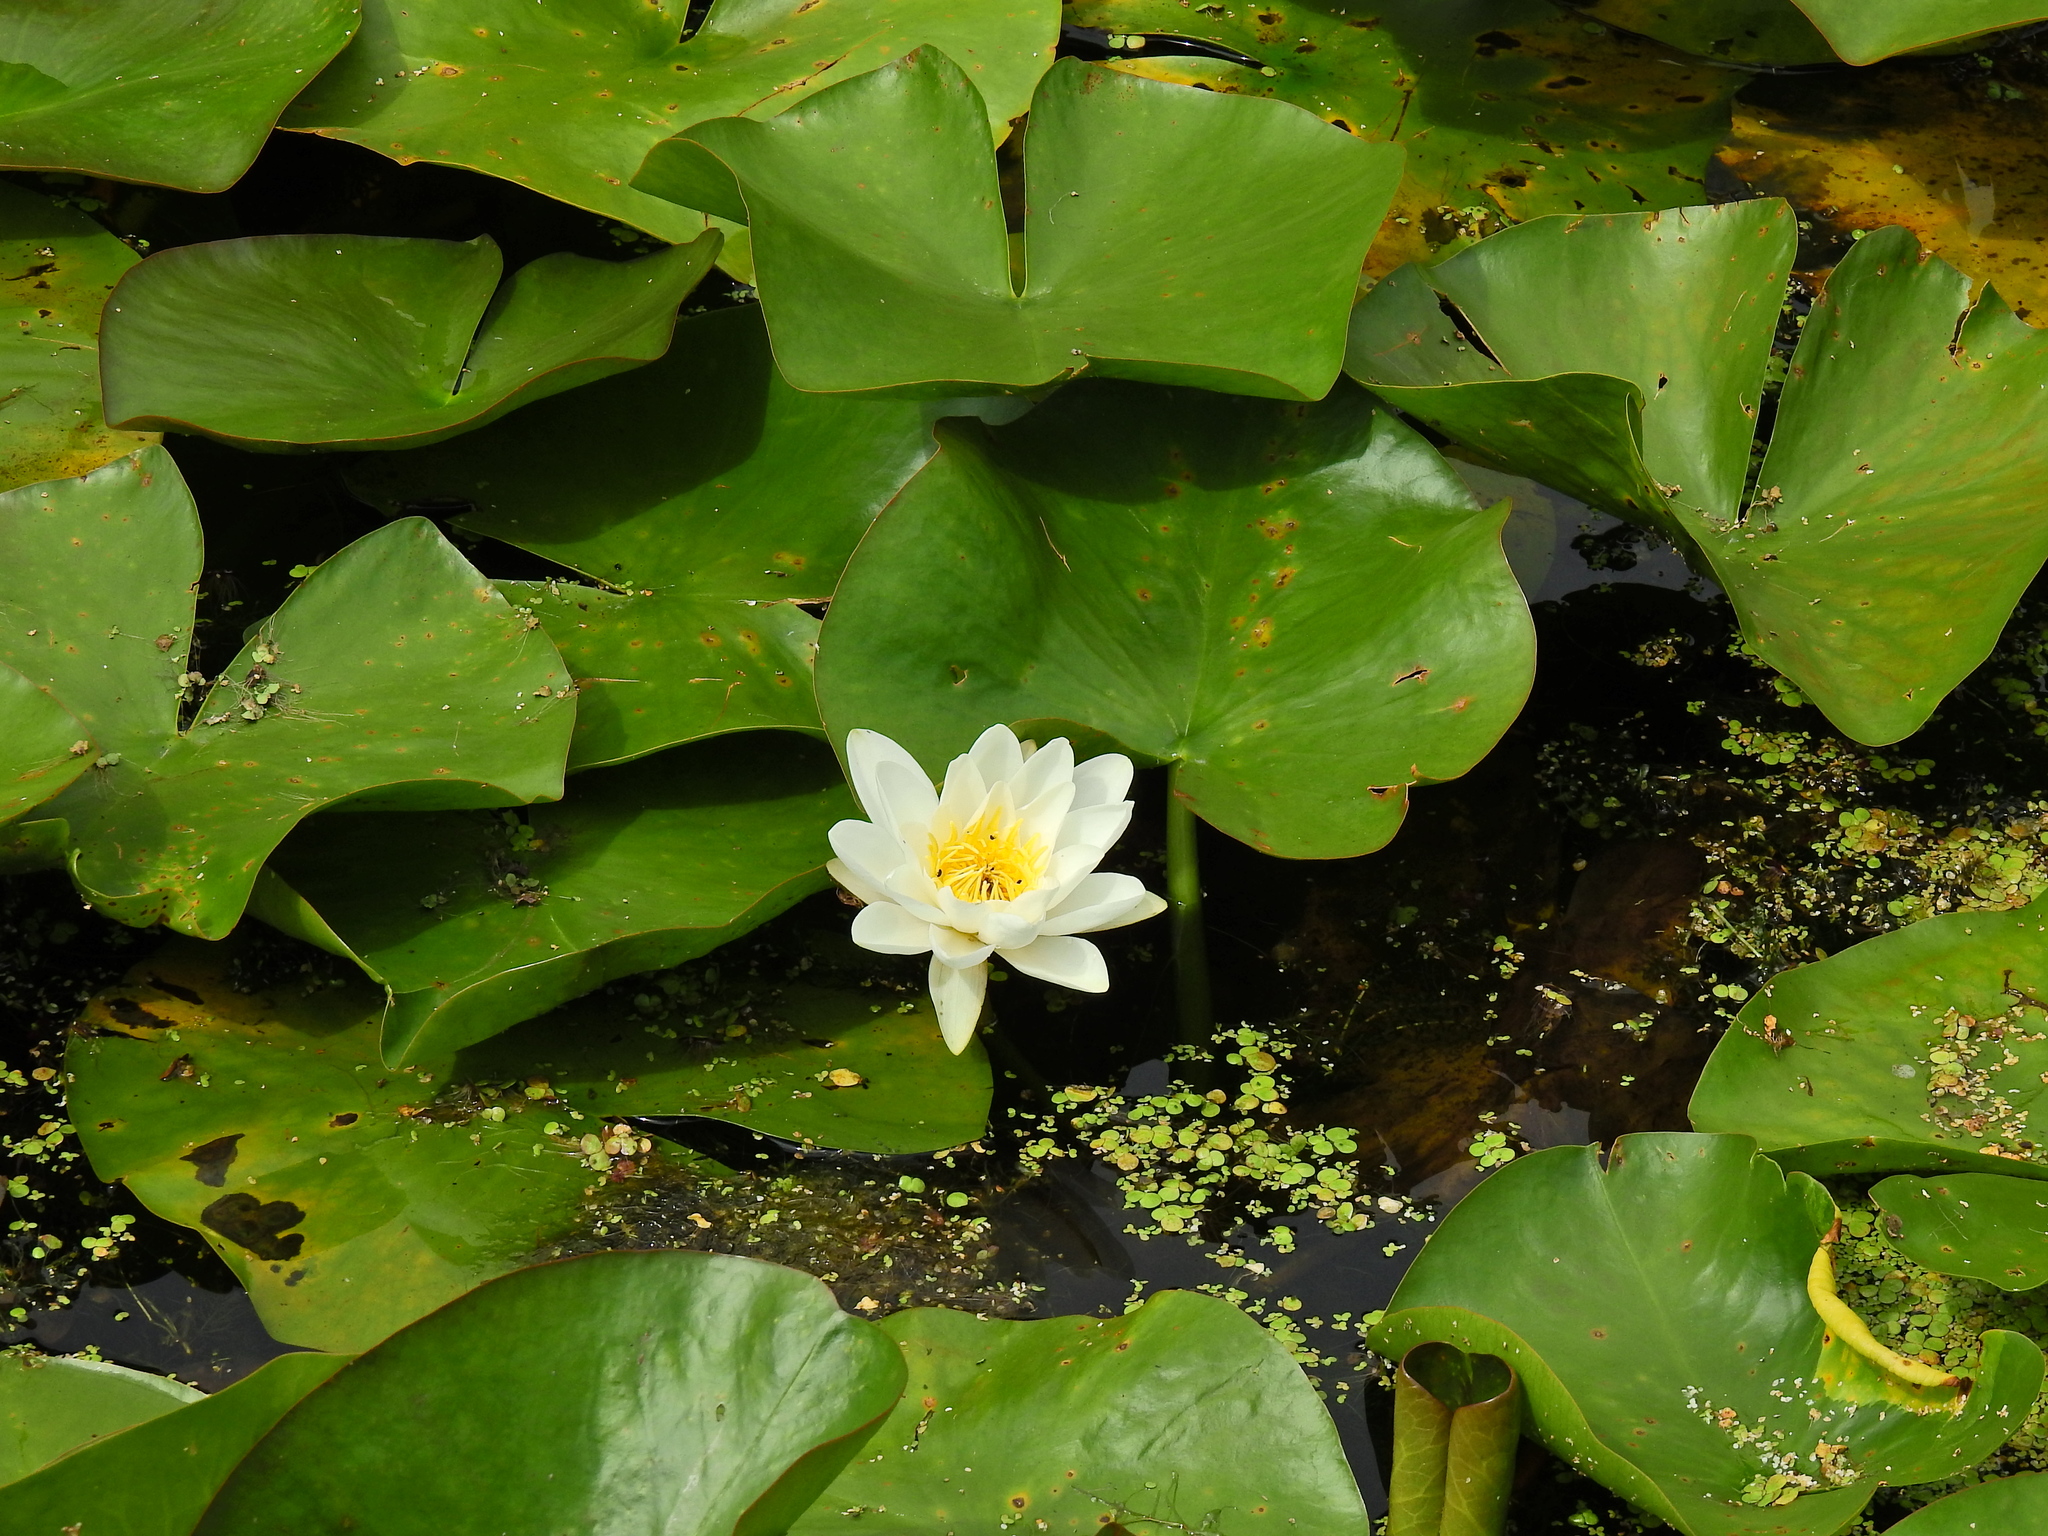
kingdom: Plantae
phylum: Tracheophyta
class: Magnoliopsida
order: Nymphaeales
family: Nymphaeaceae
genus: Nymphaea
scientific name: Nymphaea alba
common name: White water-lily
